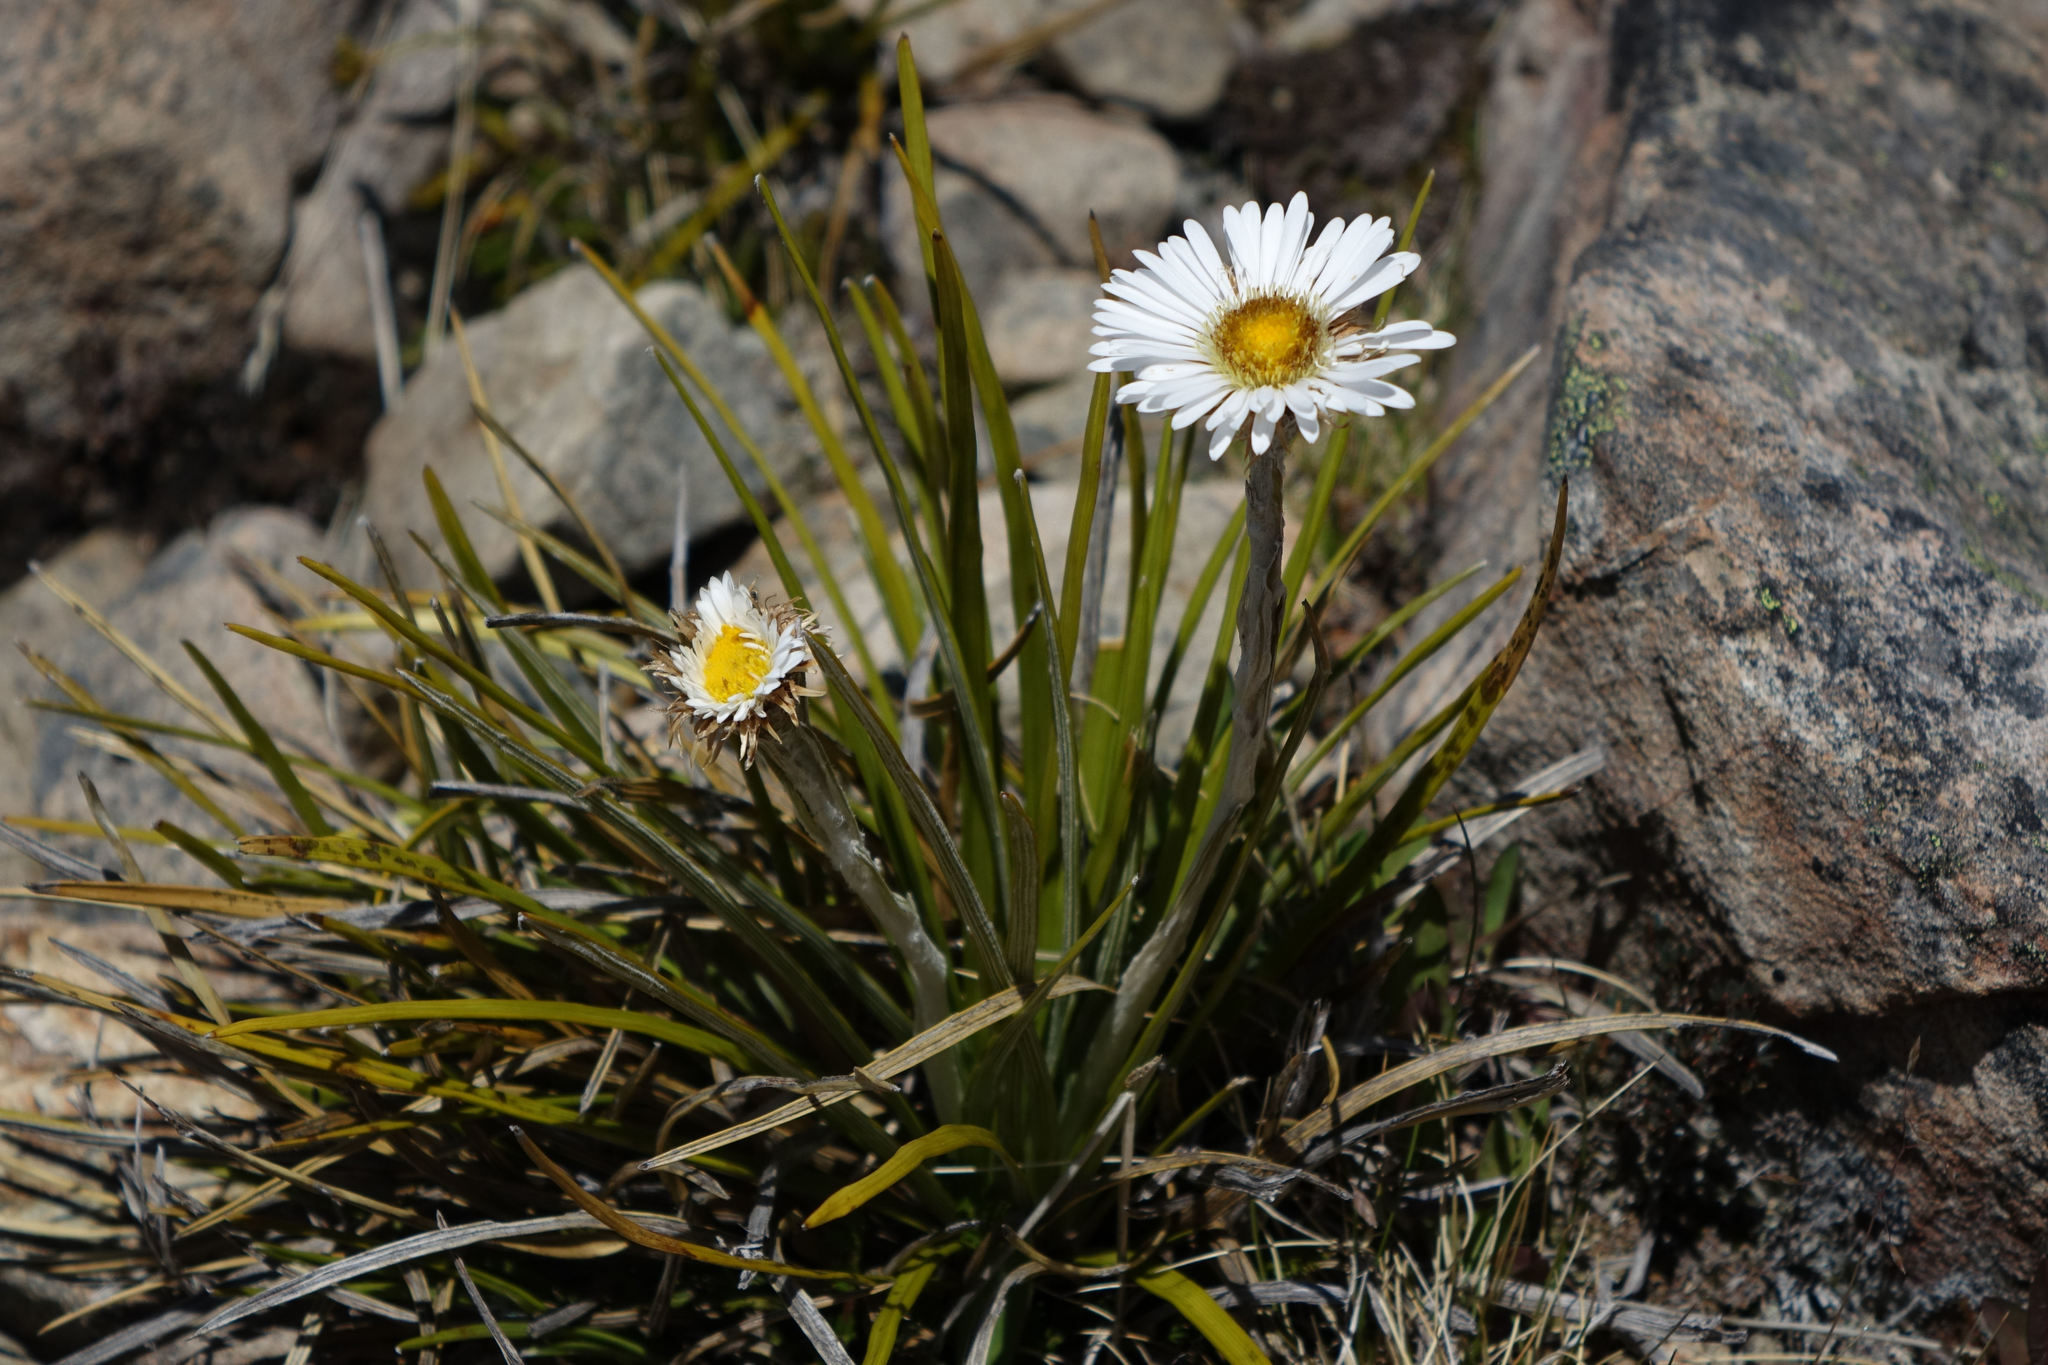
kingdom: Plantae
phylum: Tracheophyta
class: Magnoliopsida
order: Asterales
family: Asteraceae
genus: Celmisia
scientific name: Celmisia lyallii
